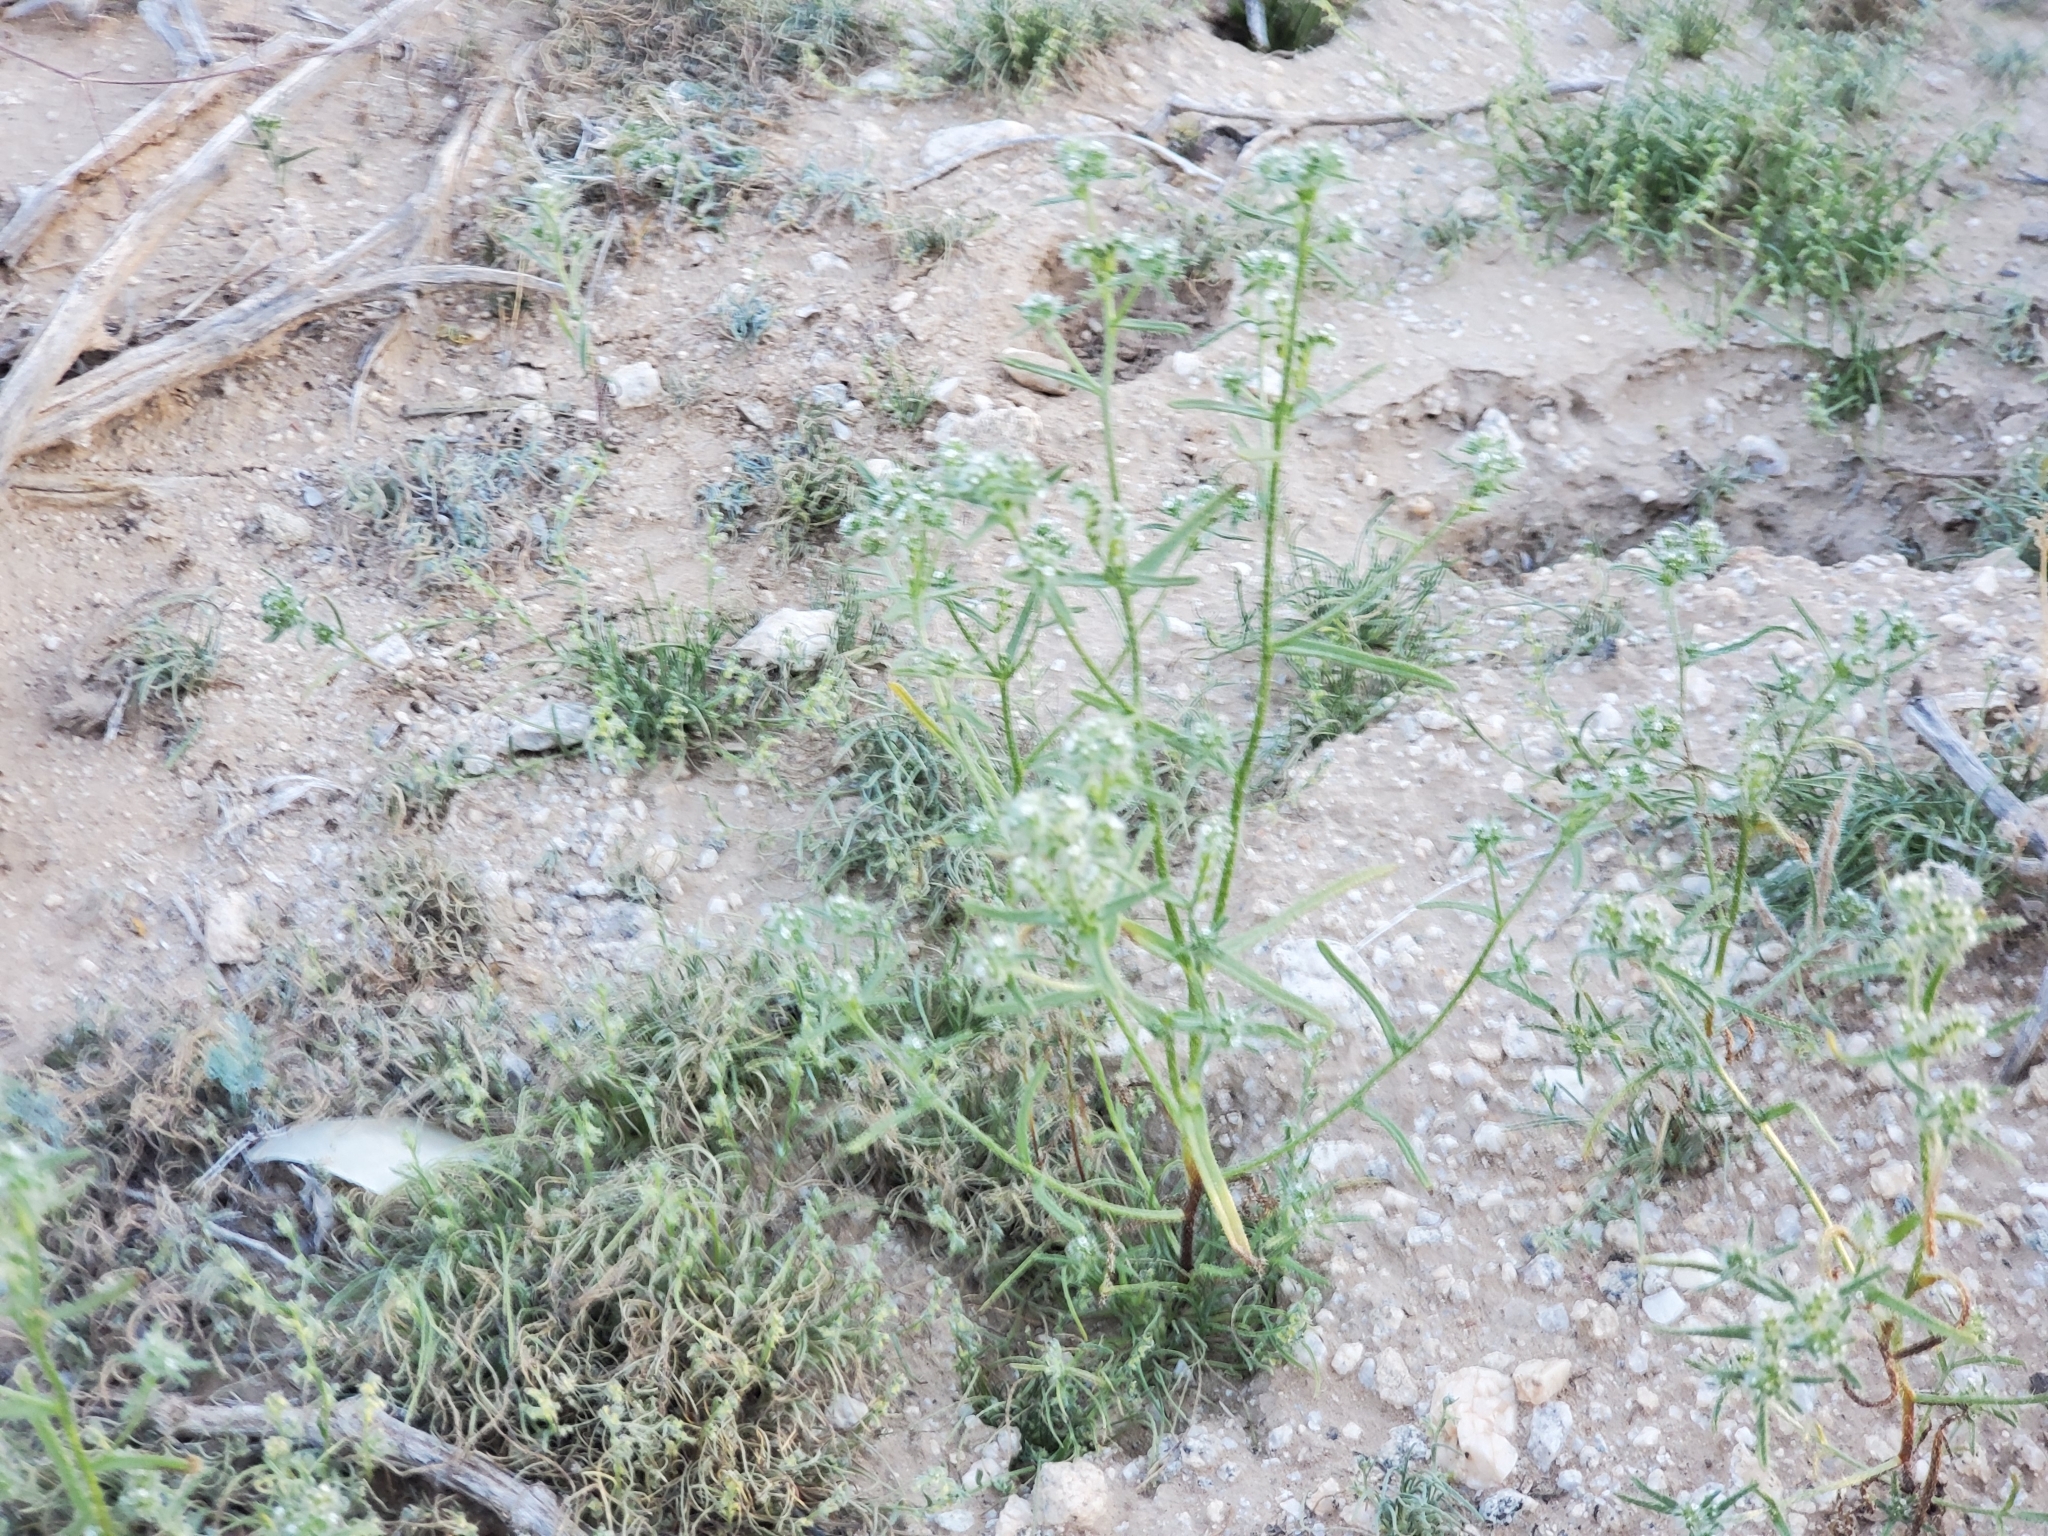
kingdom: Plantae
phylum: Tracheophyta
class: Magnoliopsida
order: Boraginales
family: Boraginaceae
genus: Cryptantha
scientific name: Cryptantha maritima
